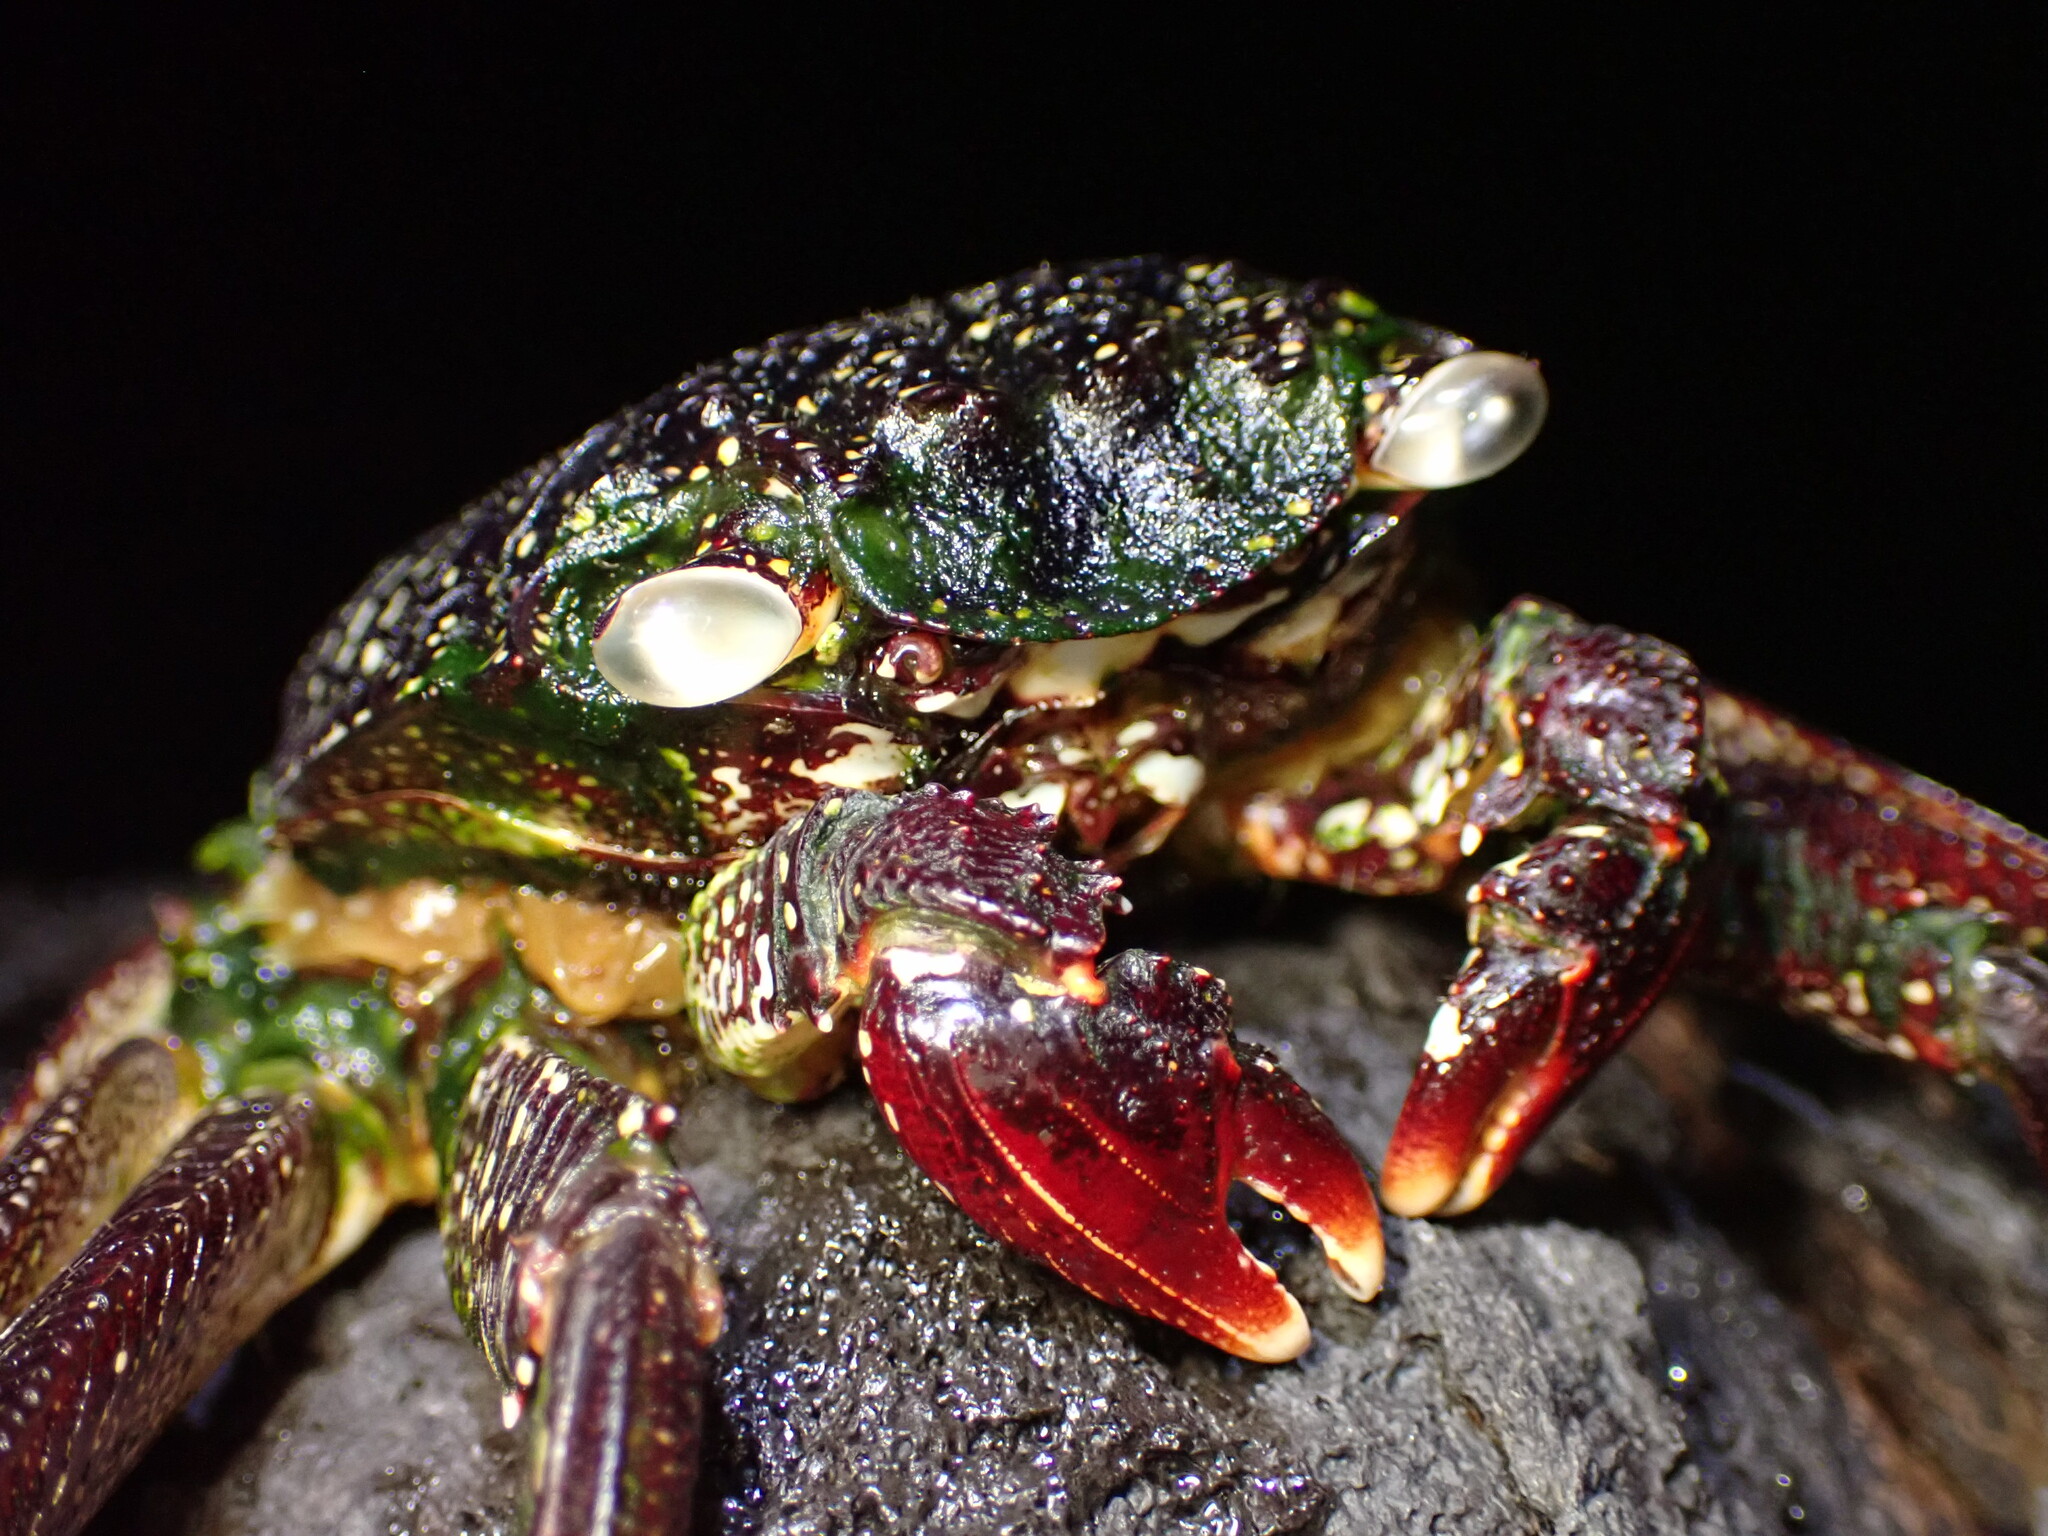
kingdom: Animalia
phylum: Arthropoda
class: Malacostraca
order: Decapoda
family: Grapsidae
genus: Grapsus
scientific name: Grapsus tenuicrustatus
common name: Natal lightfoot crab
